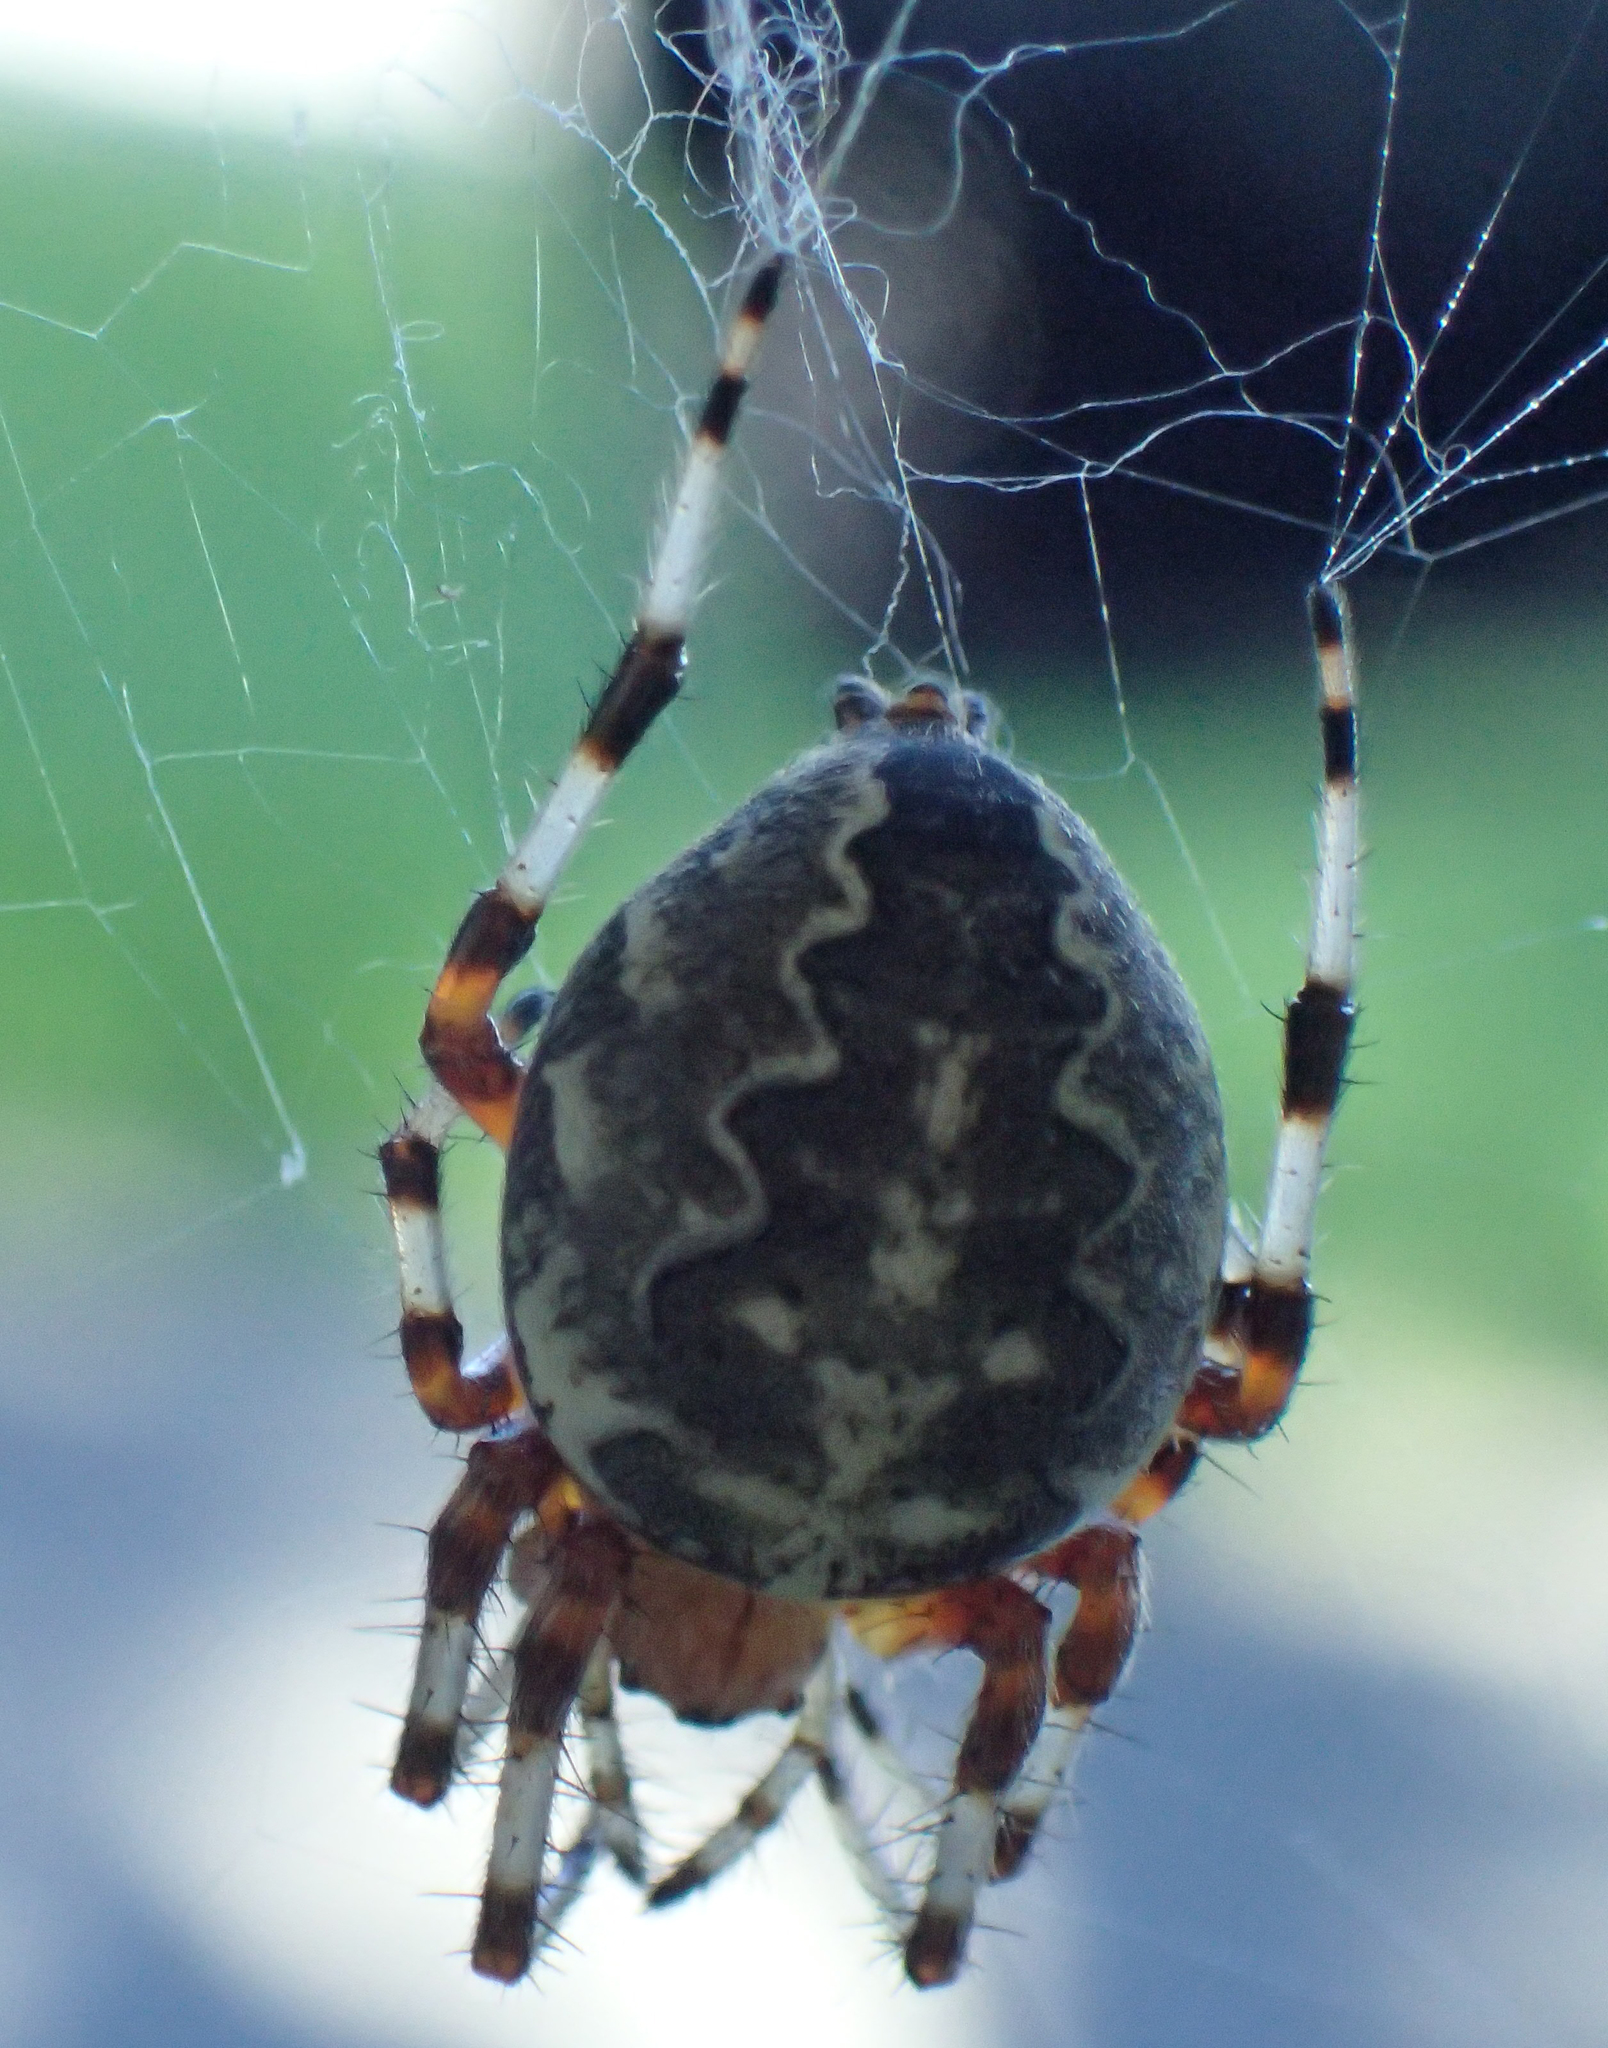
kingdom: Animalia
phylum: Arthropoda
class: Arachnida
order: Araneae
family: Araneidae
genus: Araneus
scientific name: Araneus marmoreus
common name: Marbled orbweaver
